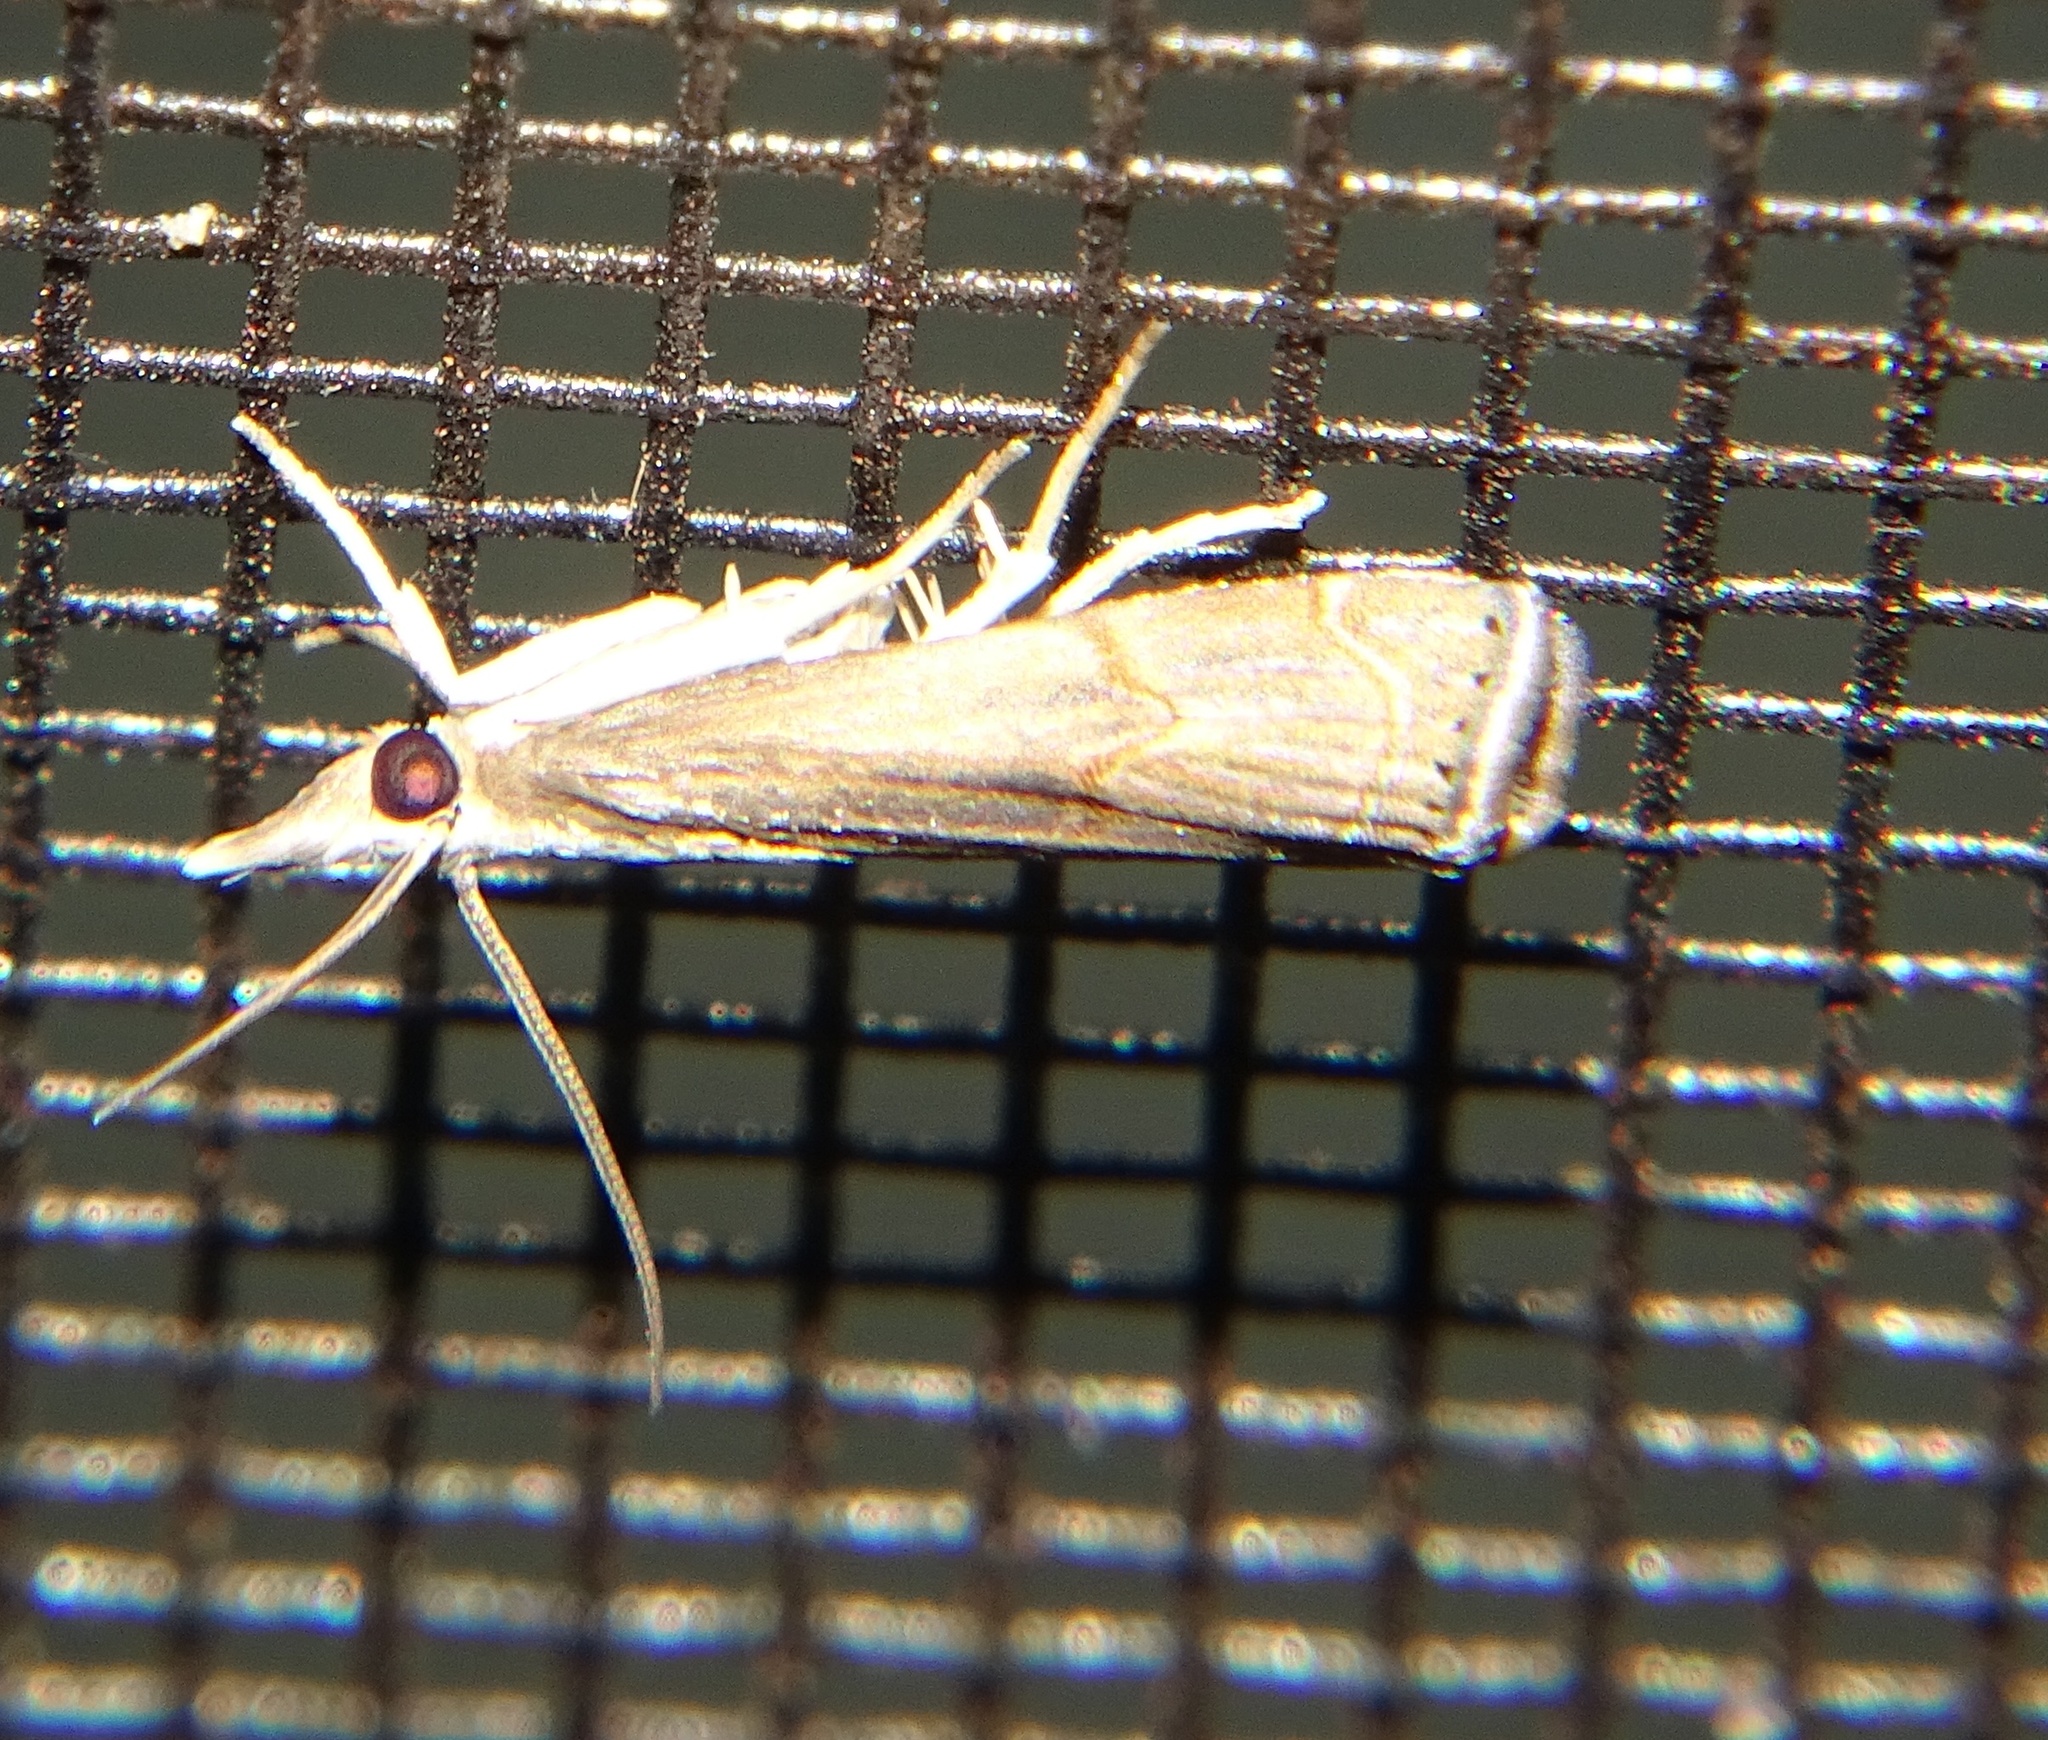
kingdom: Animalia
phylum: Arthropoda
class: Insecta
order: Lepidoptera
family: Crambidae
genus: Parapediasia
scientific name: Parapediasia teterellus
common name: Bluegrass webworm moth
